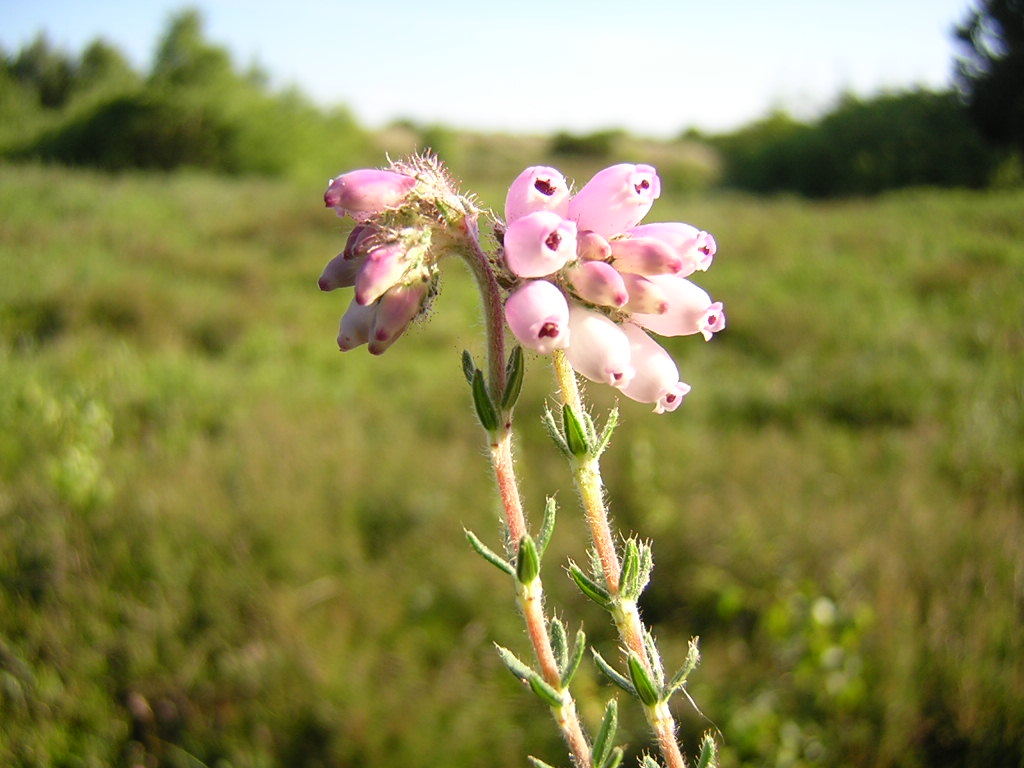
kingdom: Plantae
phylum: Tracheophyta
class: Magnoliopsida
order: Ericales
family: Ericaceae
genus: Erica
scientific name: Erica tetralix
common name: Cross-leaved heath
